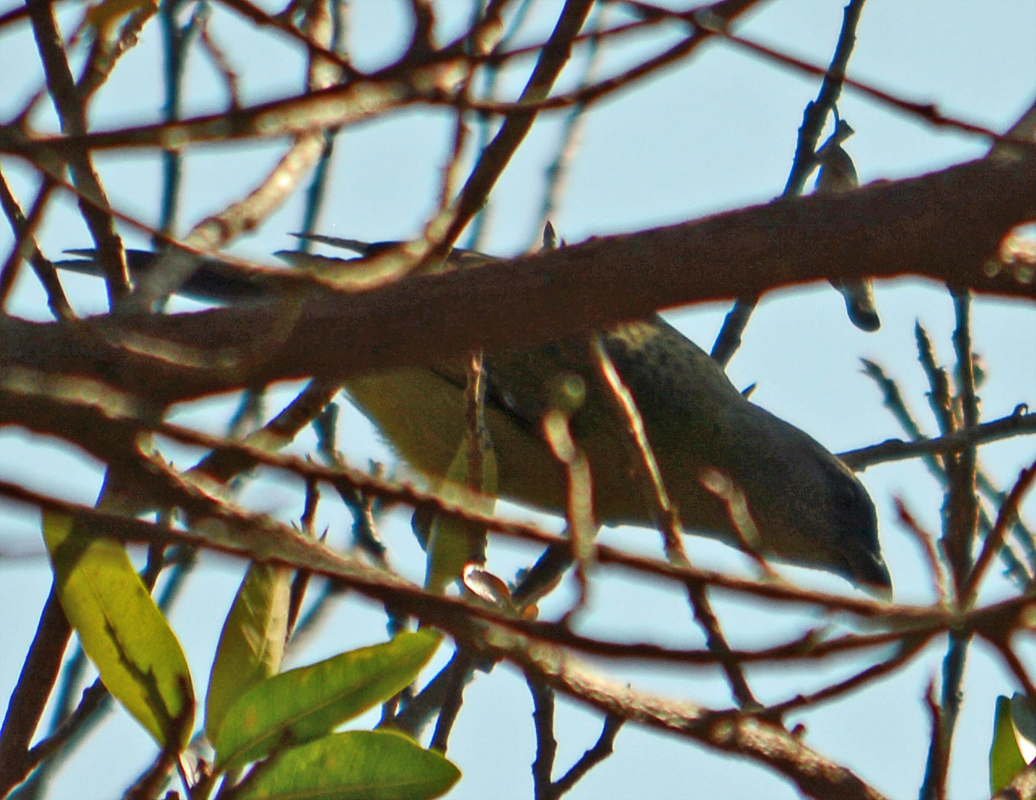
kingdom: Animalia
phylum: Chordata
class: Aves
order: Passeriformes
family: Thraupidae
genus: Thraupis
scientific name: Thraupis abbas
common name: Yellow-winged tanager
